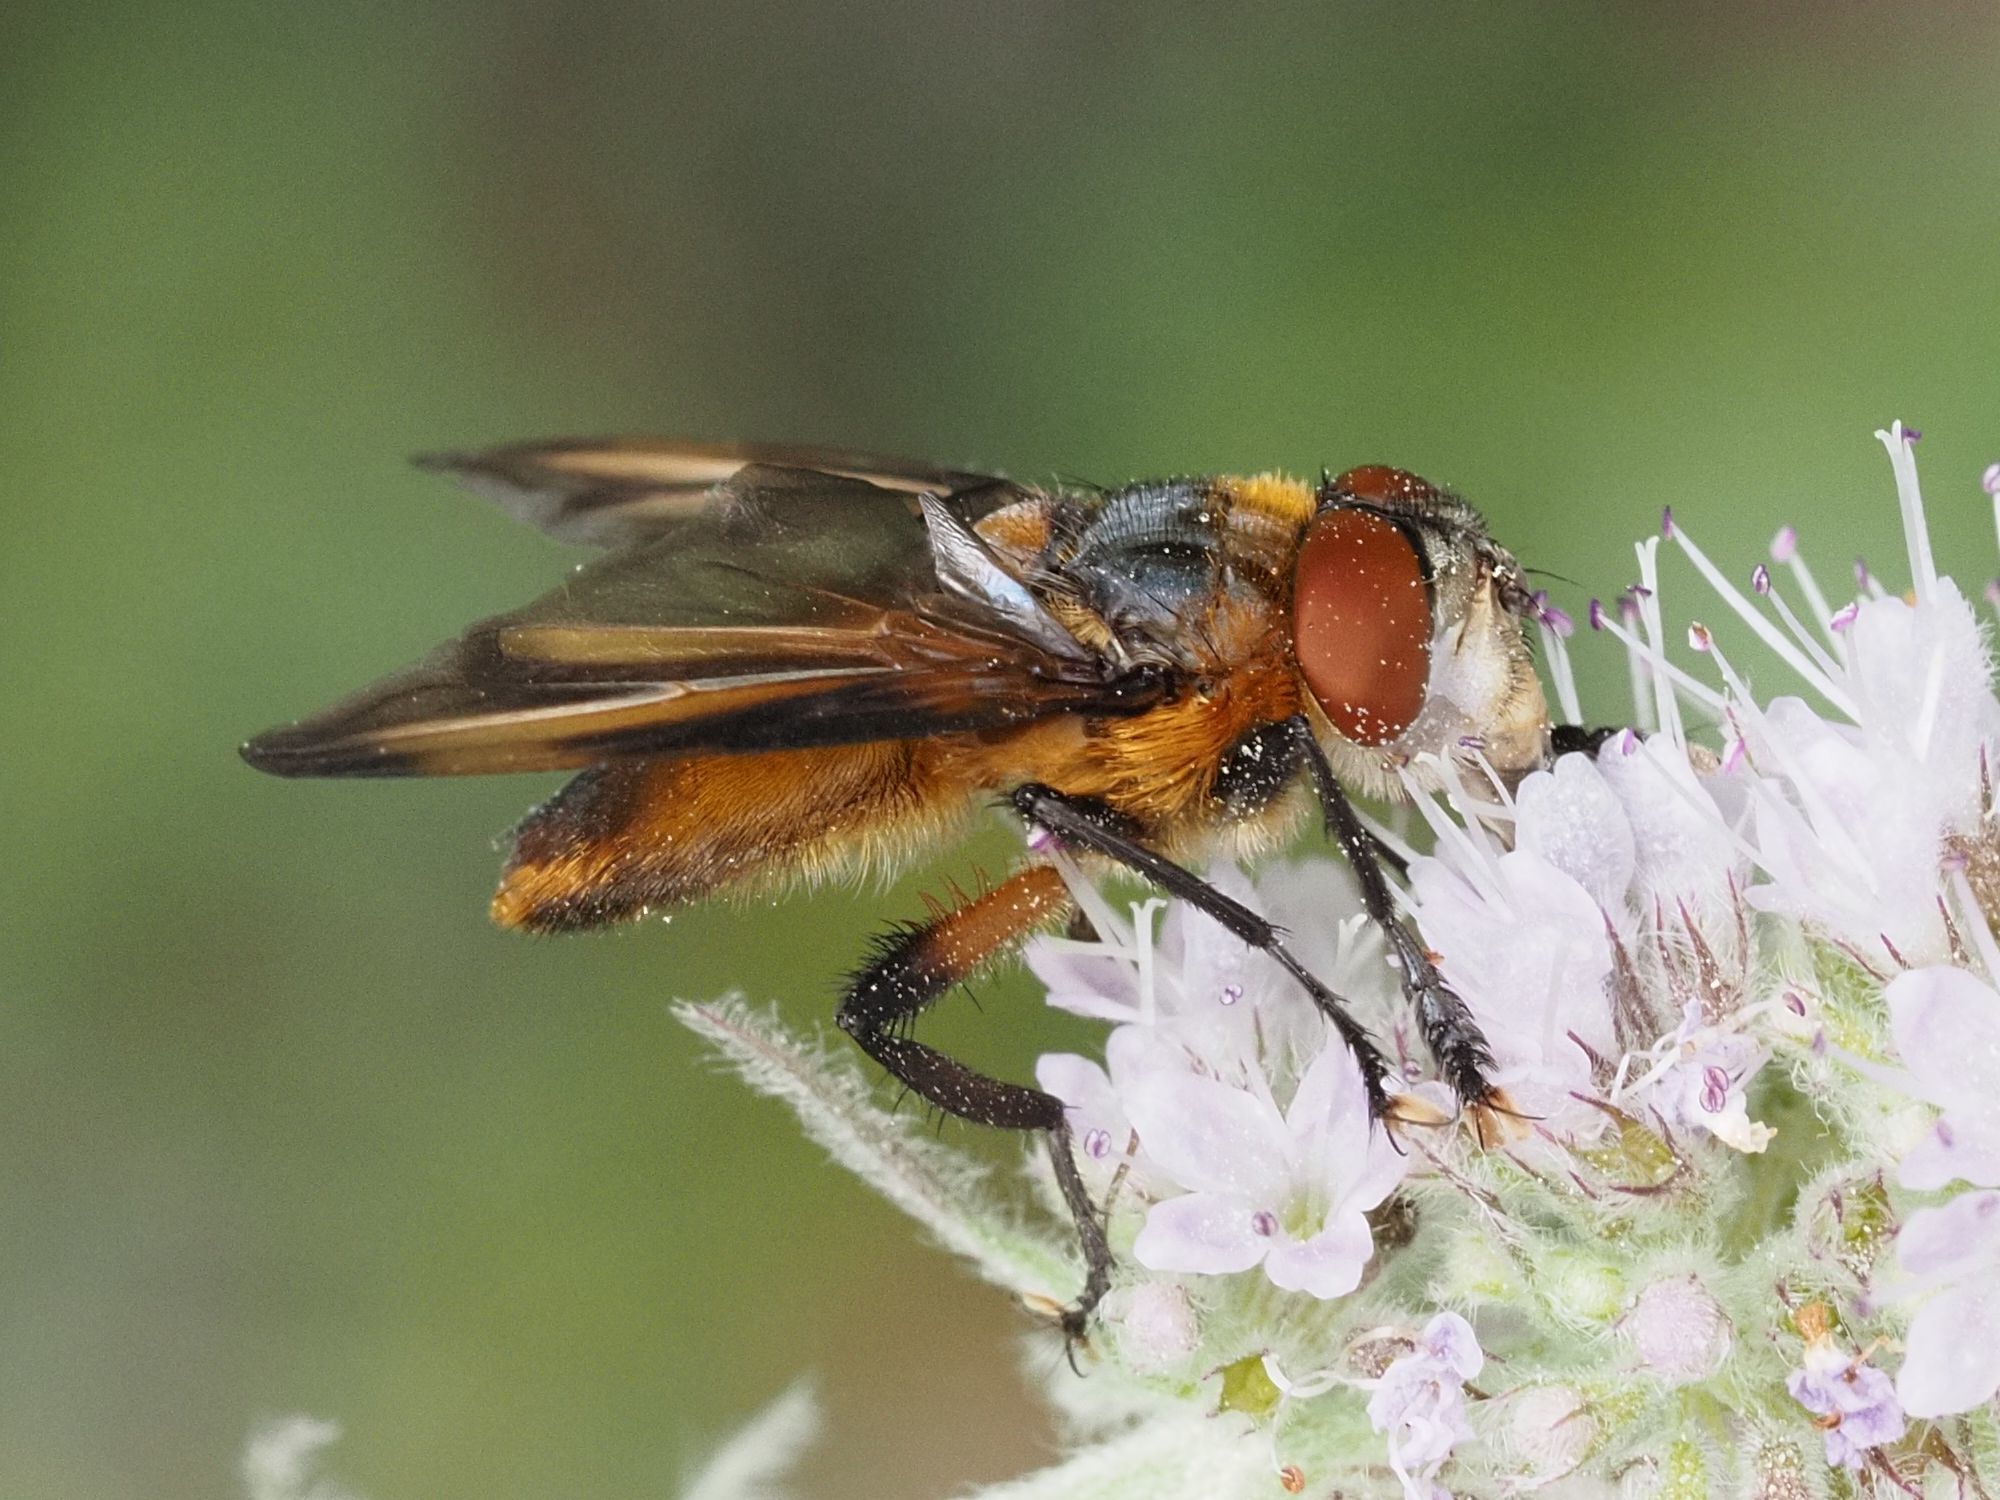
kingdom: Animalia
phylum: Arthropoda
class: Insecta
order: Diptera
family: Tachinidae
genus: Phasia
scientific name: Phasia hemiptera
